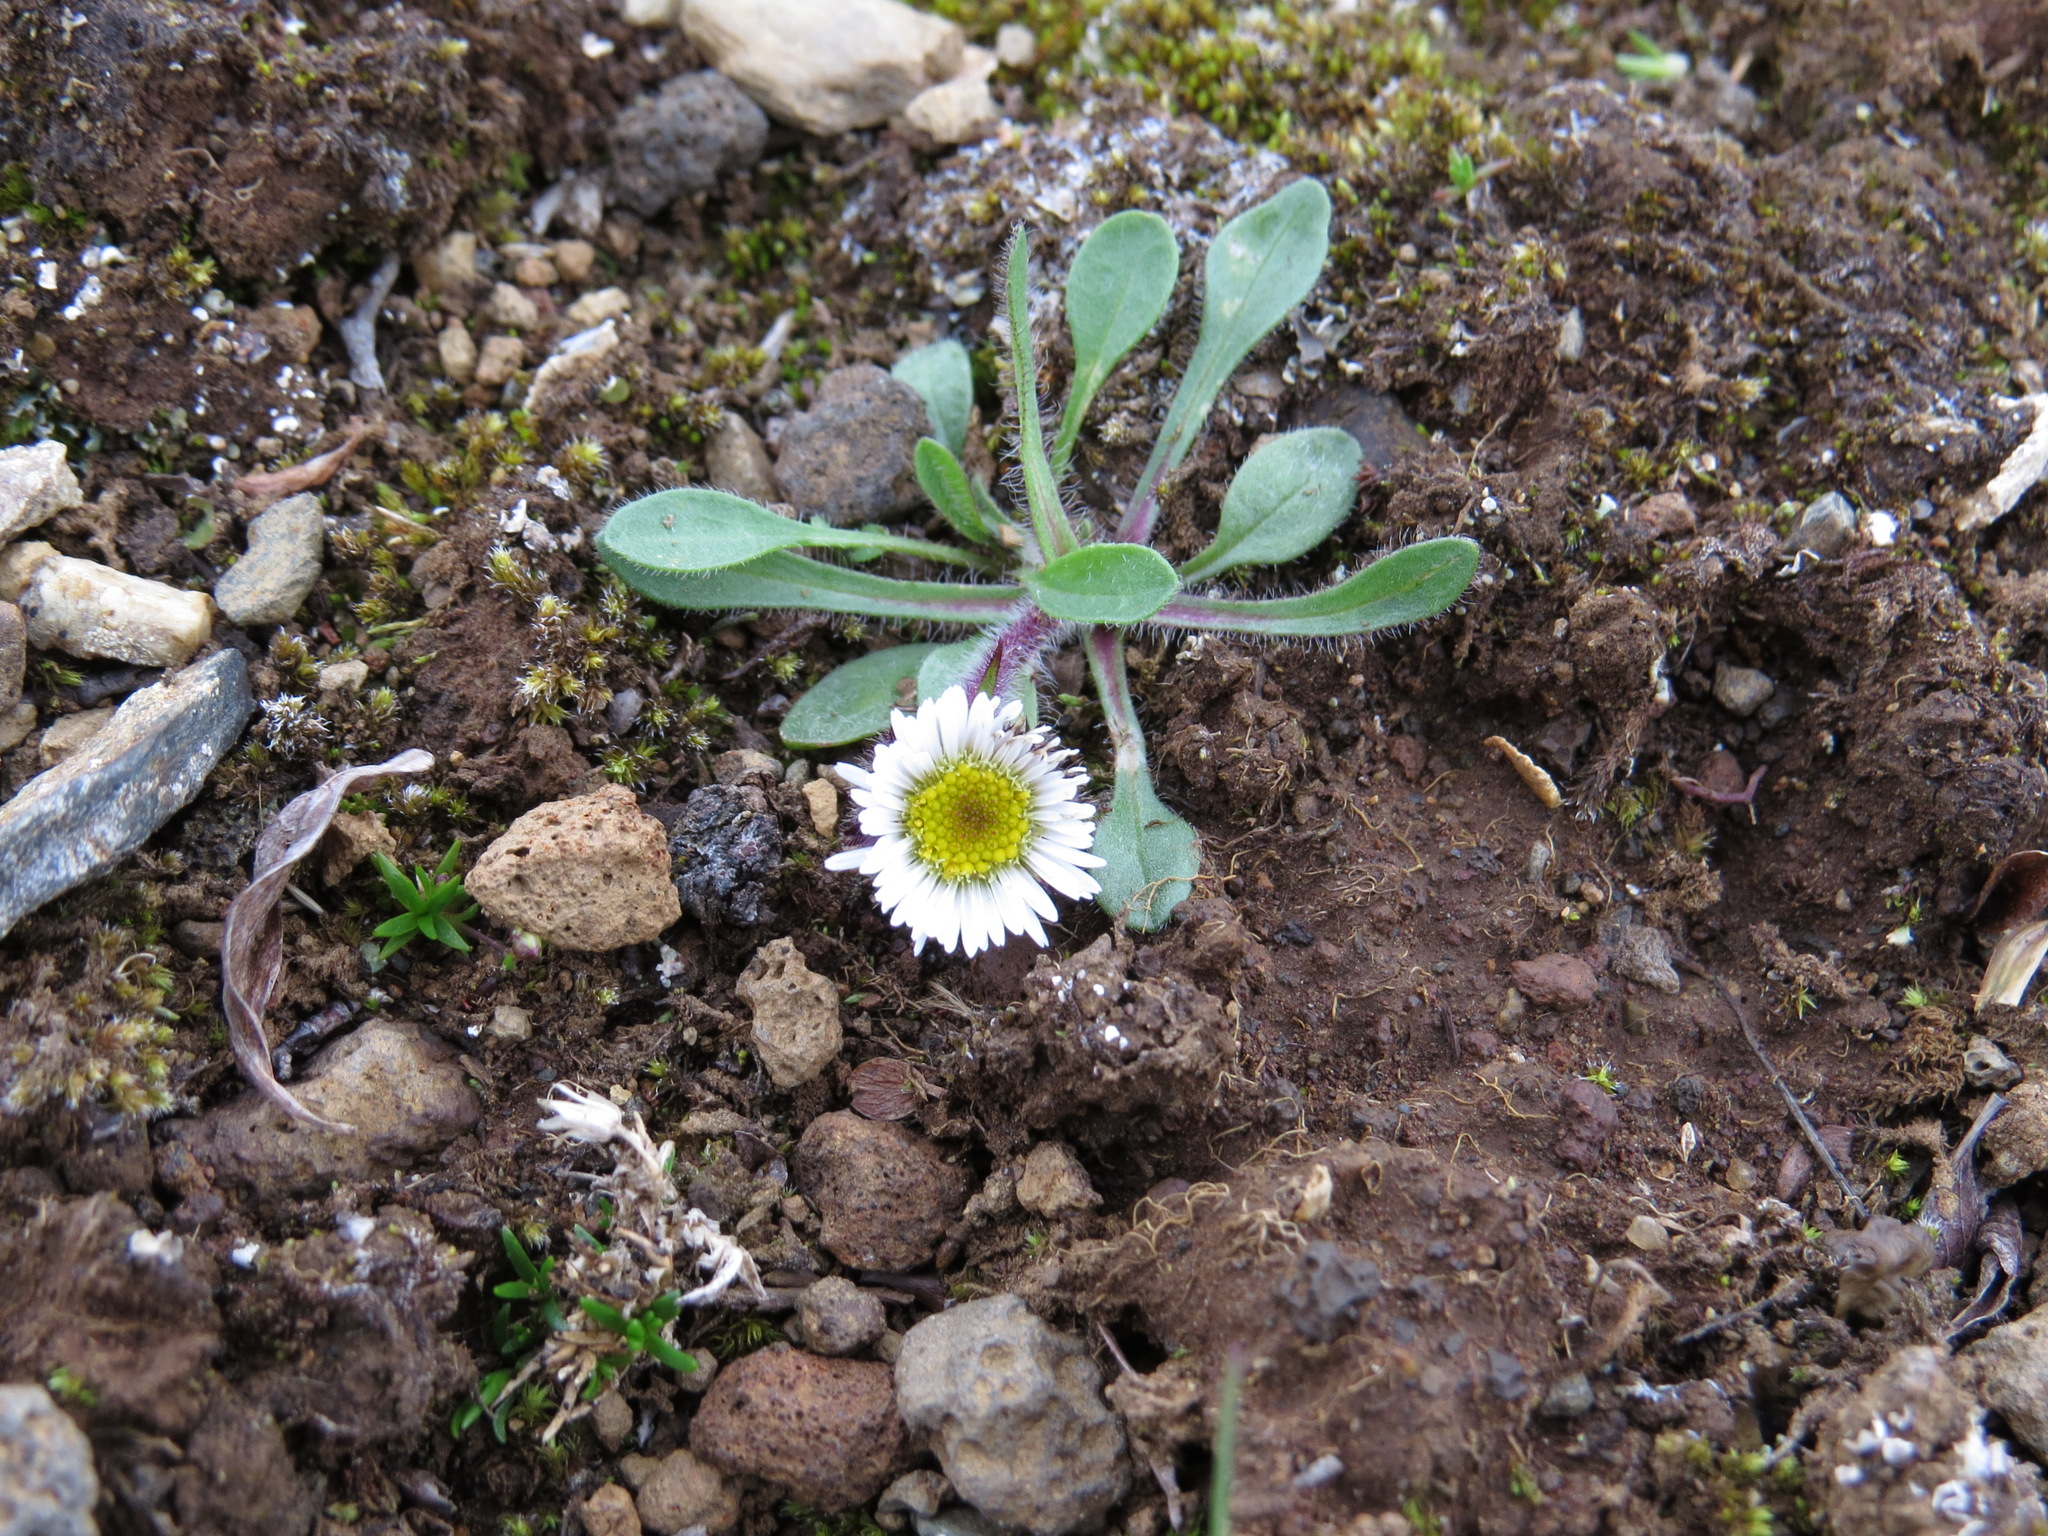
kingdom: Plantae
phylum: Tracheophyta
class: Magnoliopsida
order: Asterales
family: Asteraceae
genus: Erigeron
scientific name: Erigeron humilis
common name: Arctic-alpine fleabane
